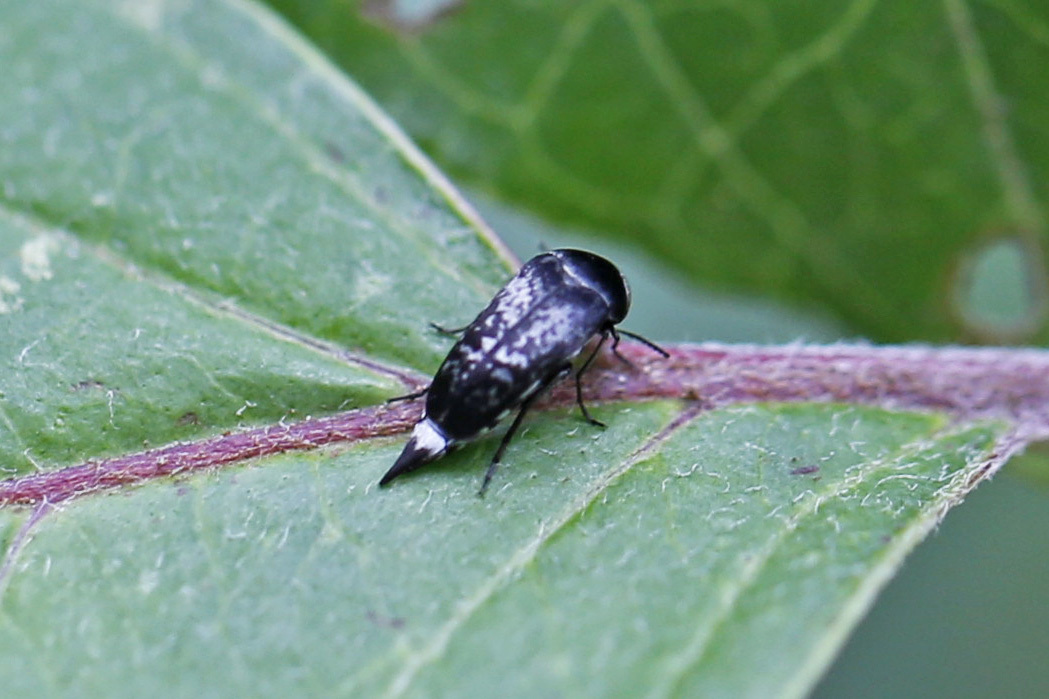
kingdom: Animalia
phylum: Arthropoda
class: Insecta
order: Coleoptera
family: Mordellidae
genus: Mordella
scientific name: Mordella marginata
